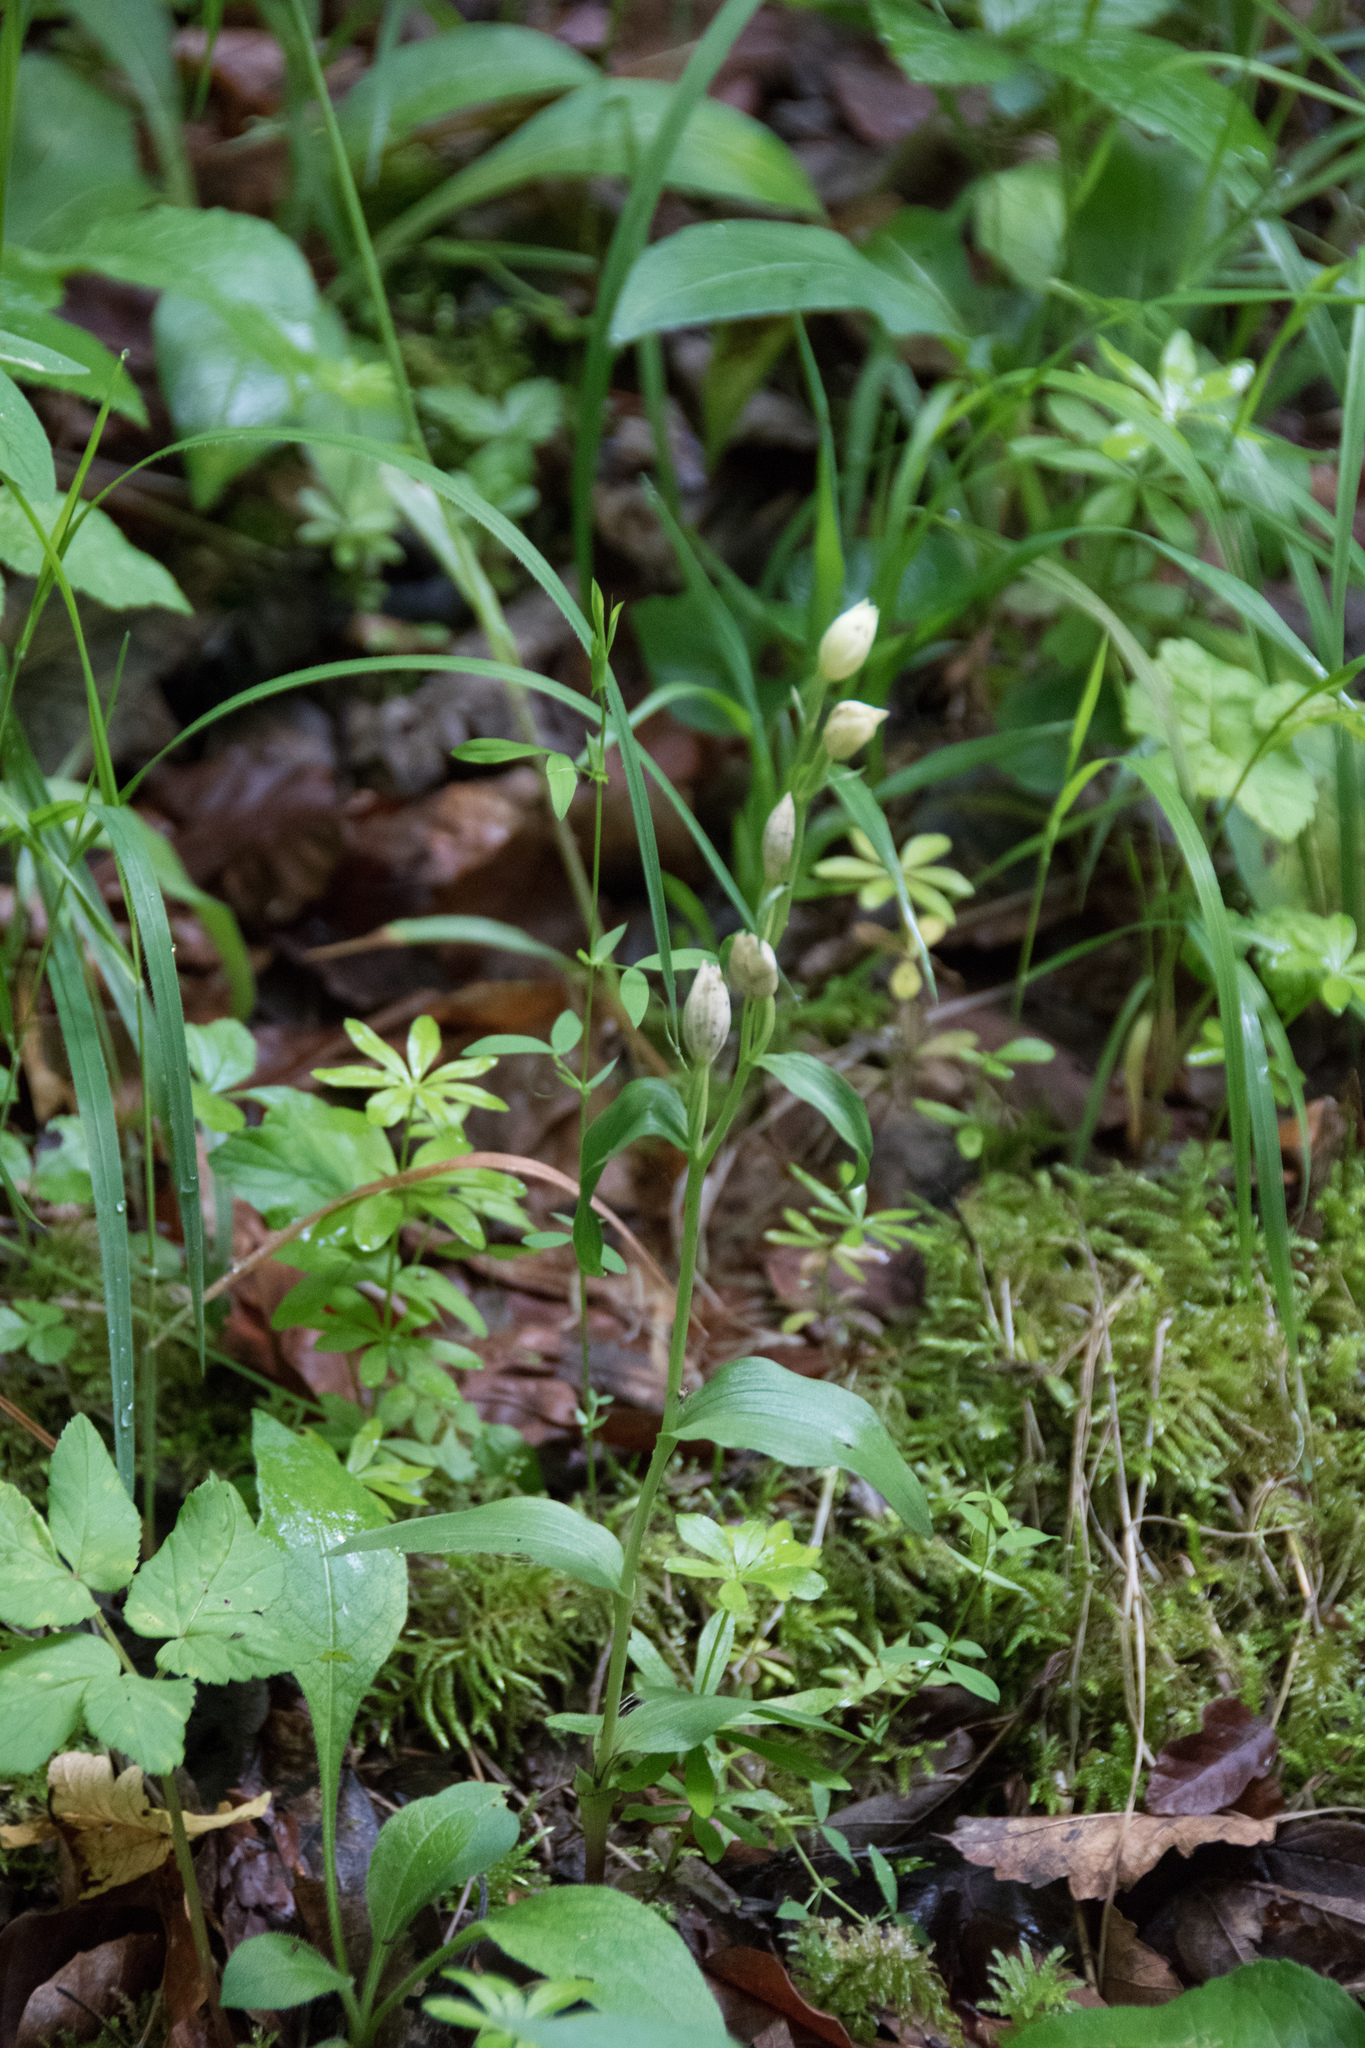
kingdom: Plantae
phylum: Tracheophyta
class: Liliopsida
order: Asparagales
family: Orchidaceae
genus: Cephalanthera
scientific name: Cephalanthera damasonium
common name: White helleborine
